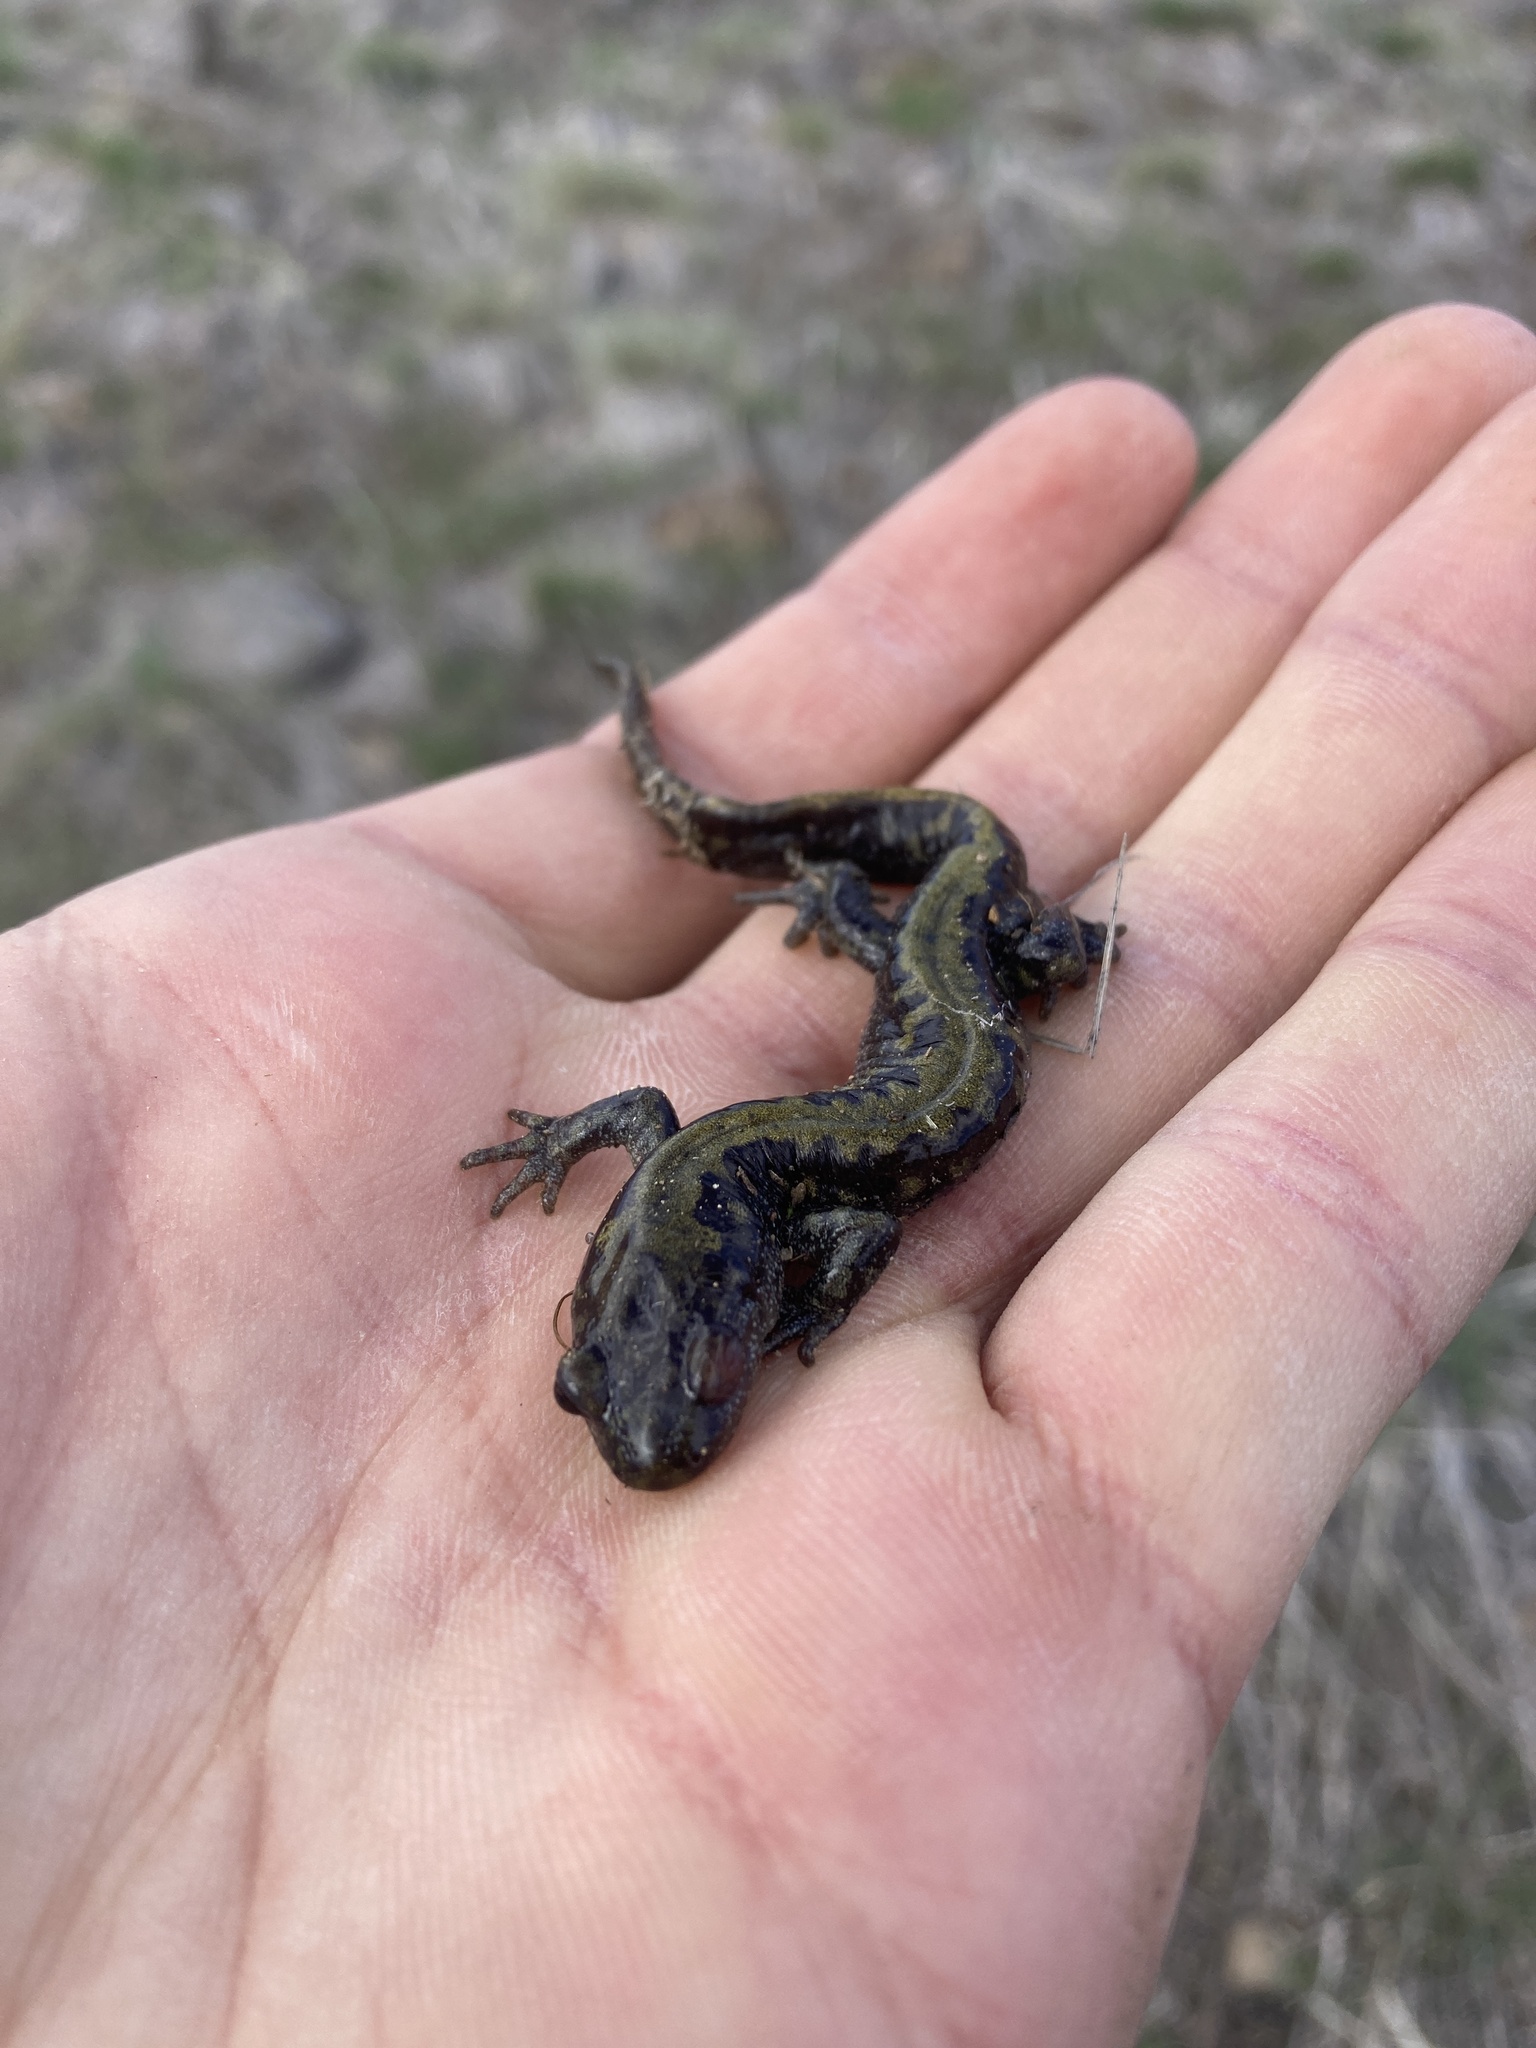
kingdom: Animalia
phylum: Chordata
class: Amphibia
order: Caudata
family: Ambystomatidae
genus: Ambystoma
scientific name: Ambystoma macrodactylum
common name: Long-toed salamander
